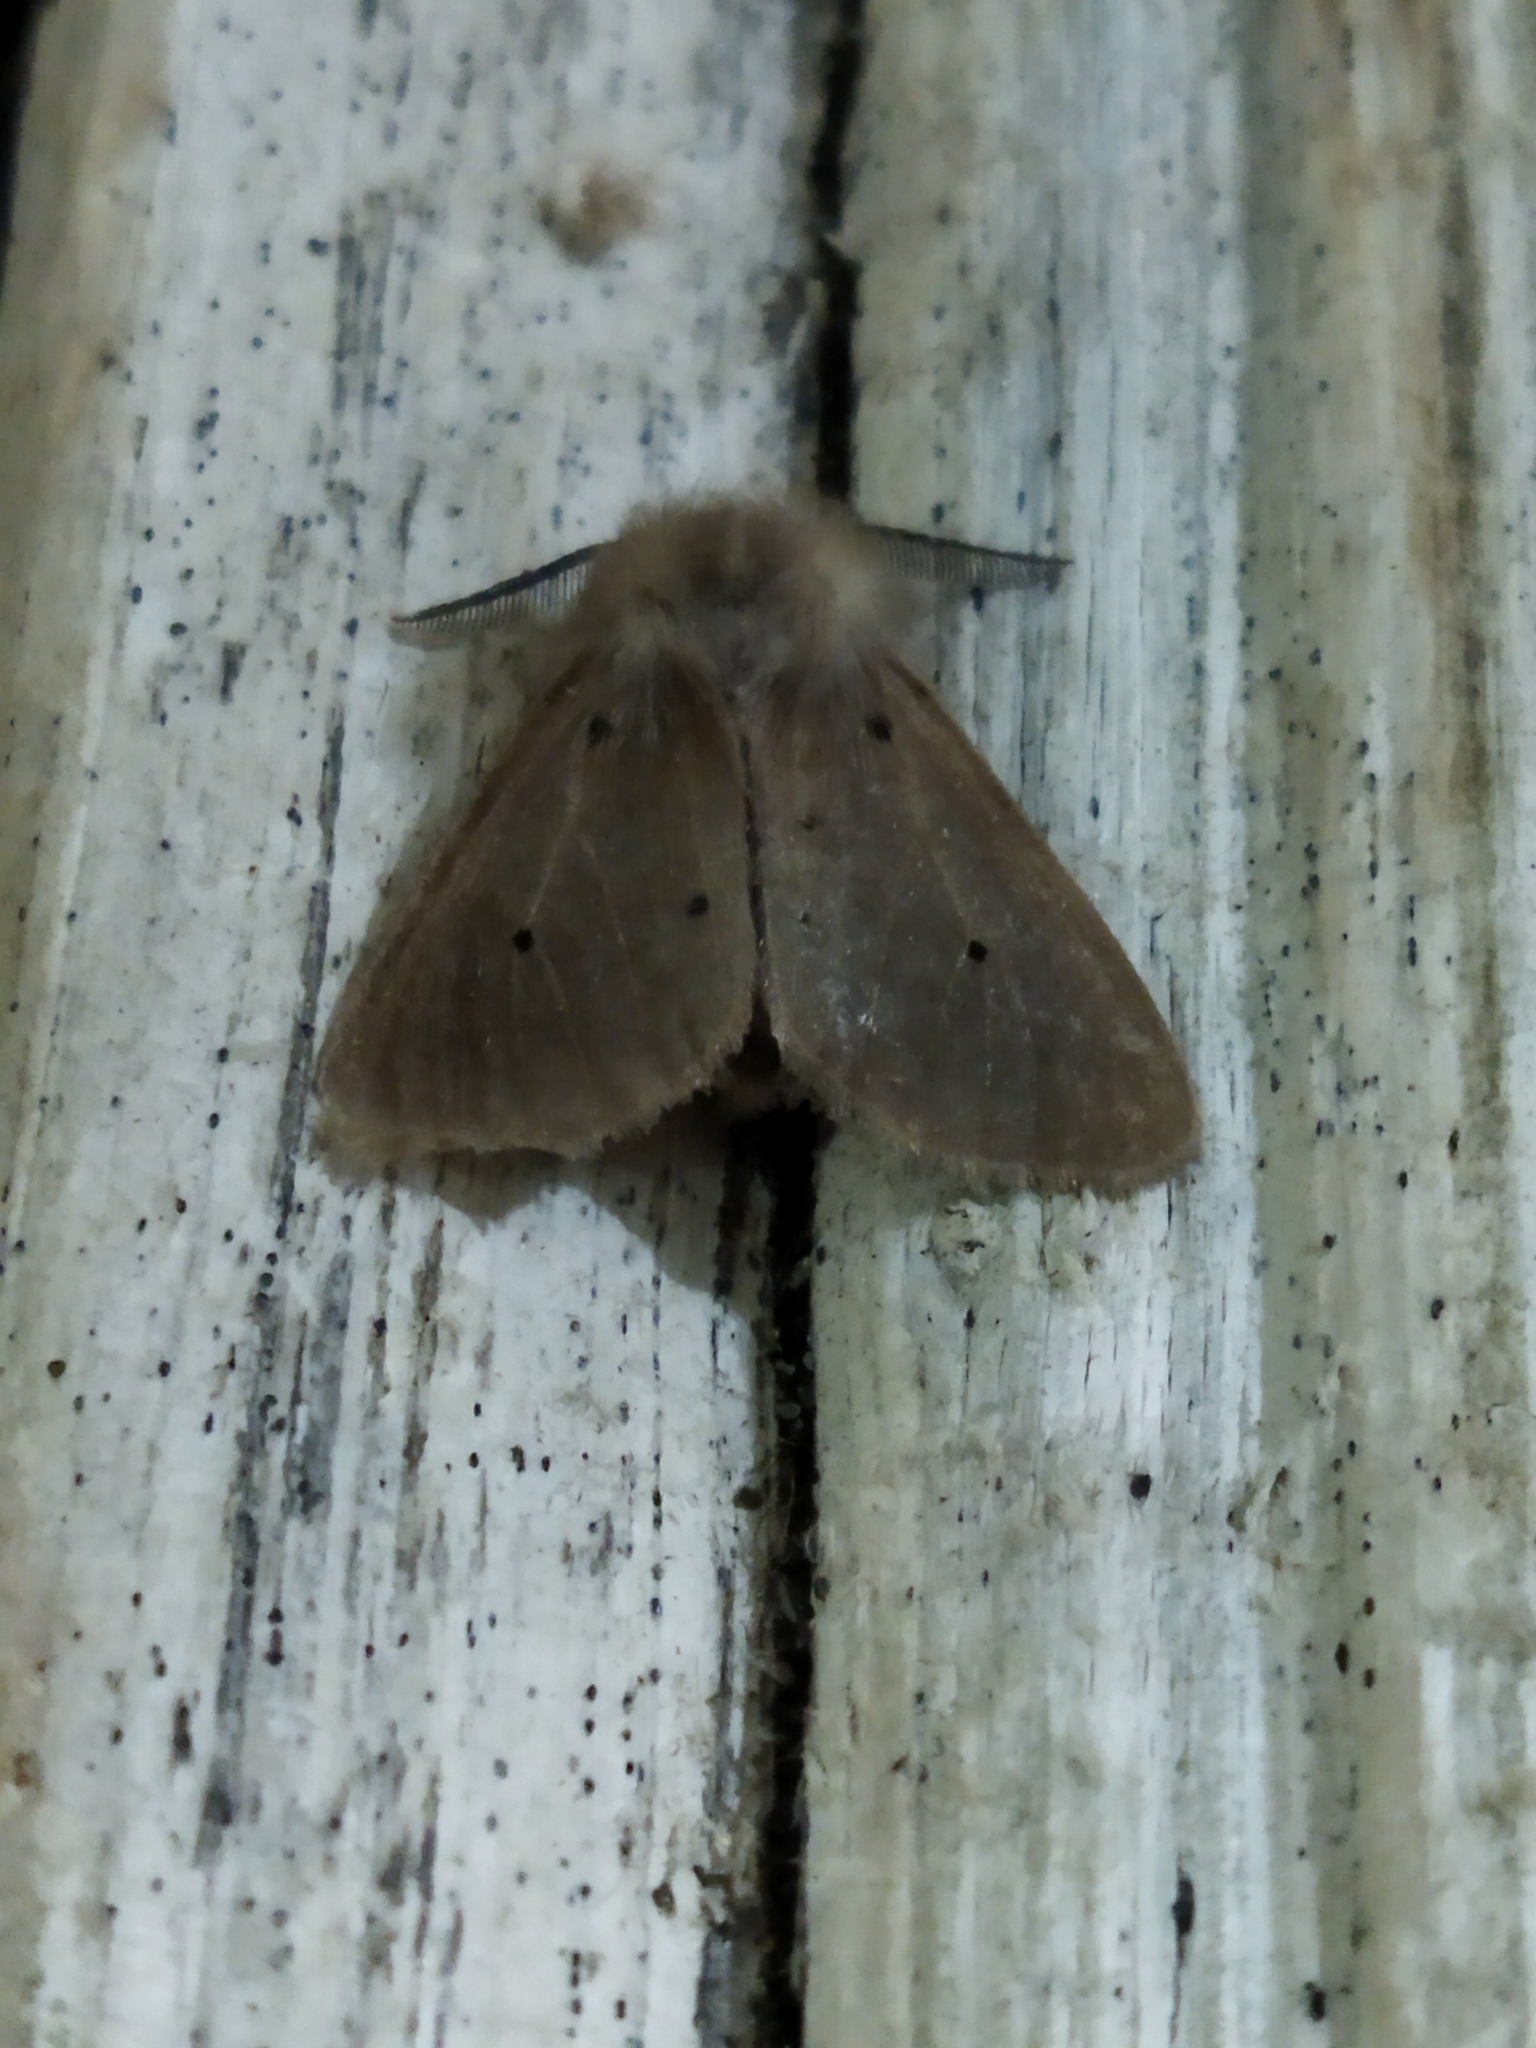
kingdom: Animalia
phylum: Arthropoda
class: Insecta
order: Lepidoptera
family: Erebidae
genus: Diaphora
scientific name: Diaphora mendica
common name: Muslin moth
